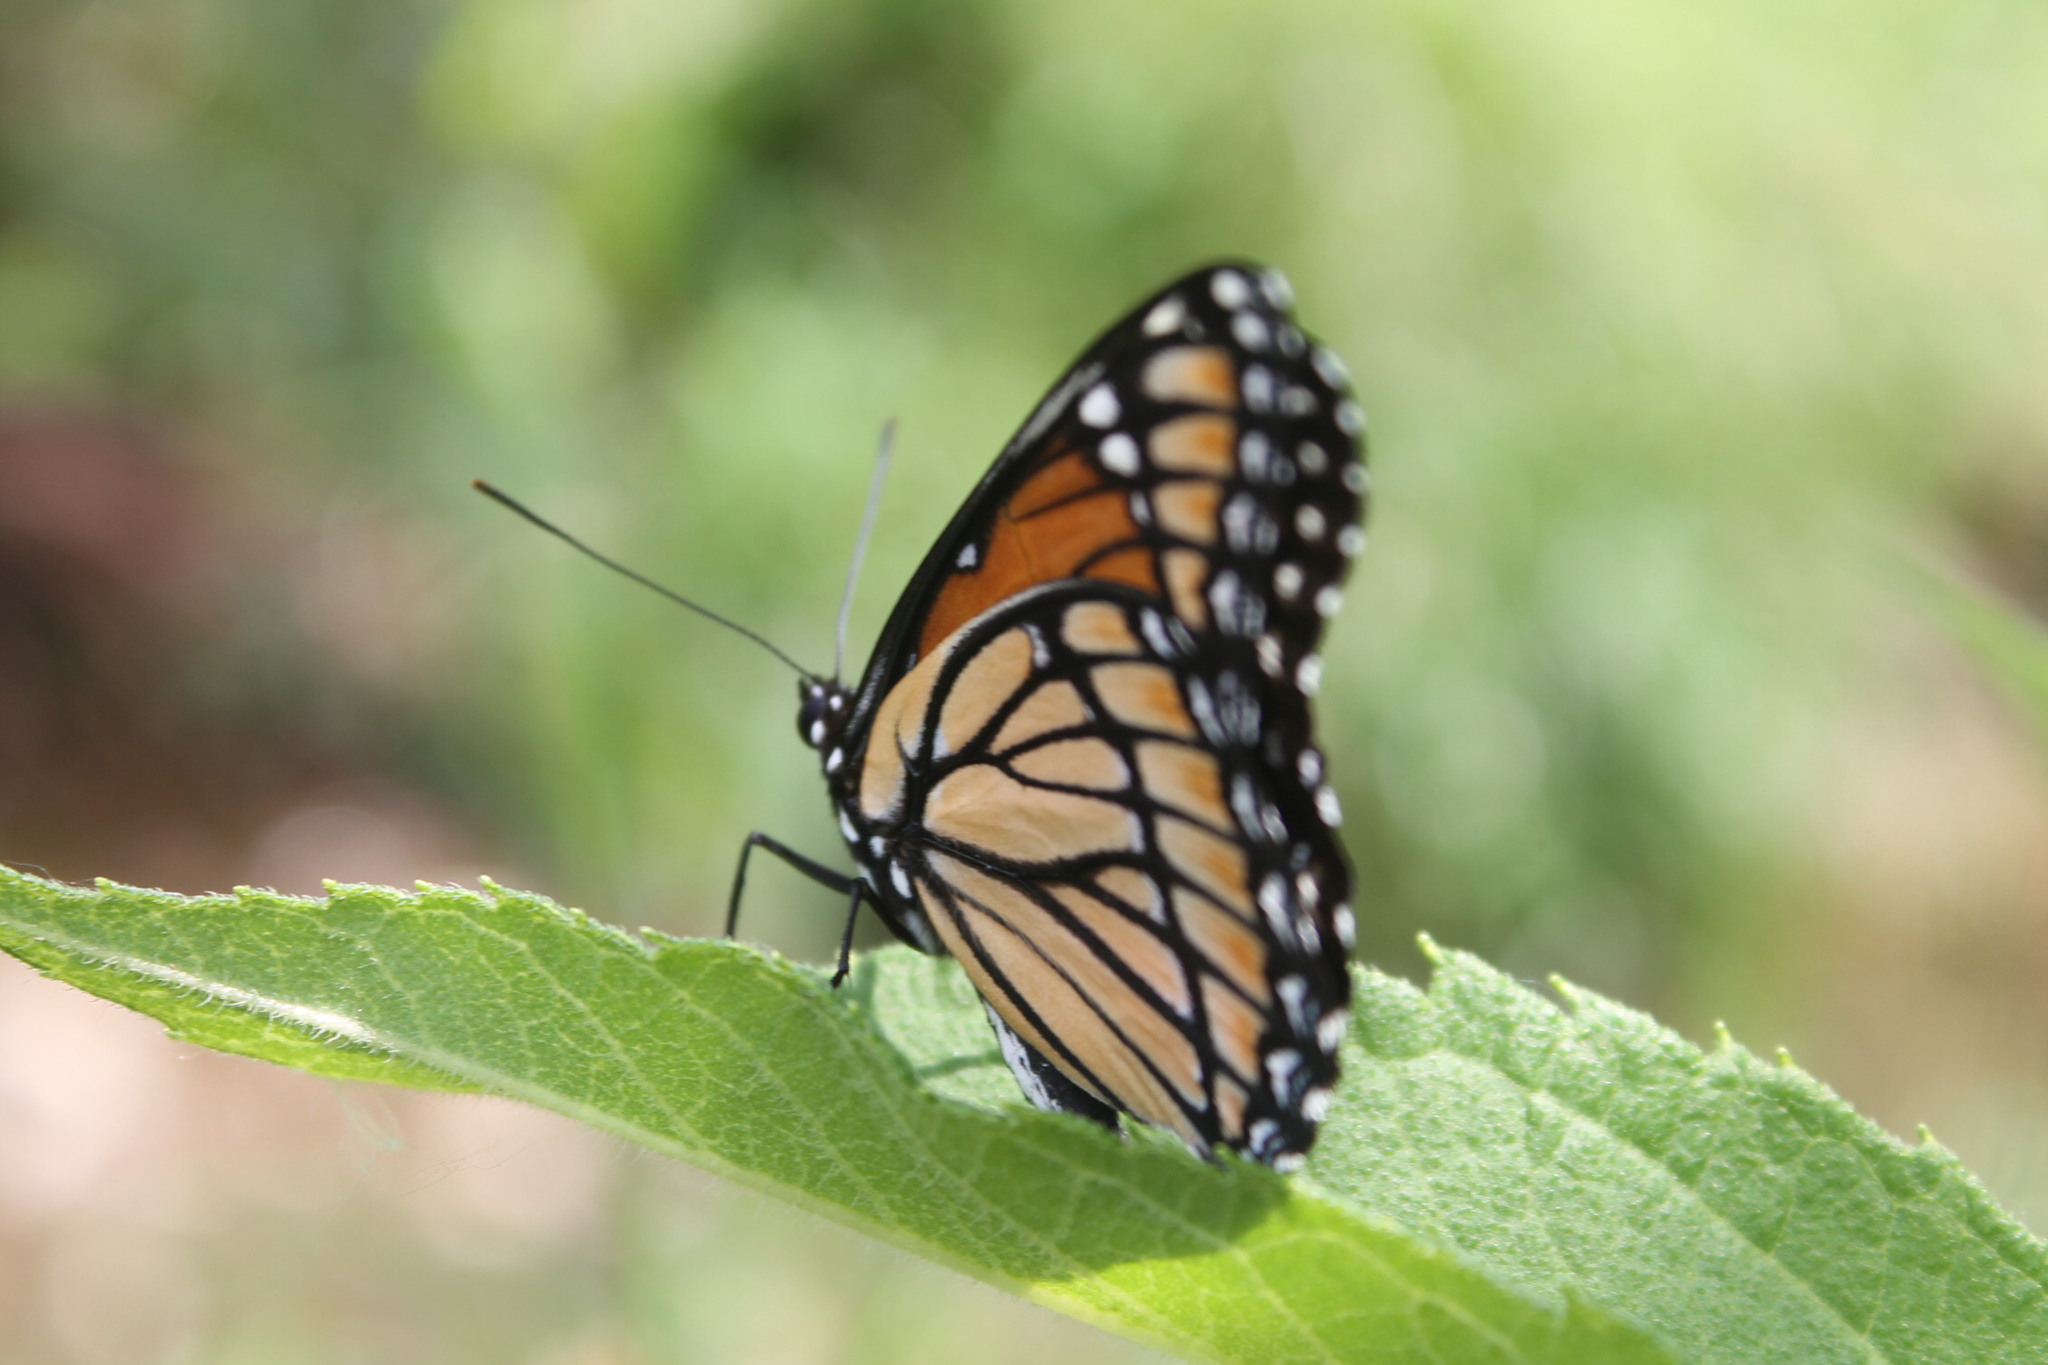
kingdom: Animalia
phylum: Arthropoda
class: Insecta
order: Lepidoptera
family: Nymphalidae
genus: Limenitis
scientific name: Limenitis archippus
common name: Viceroy
